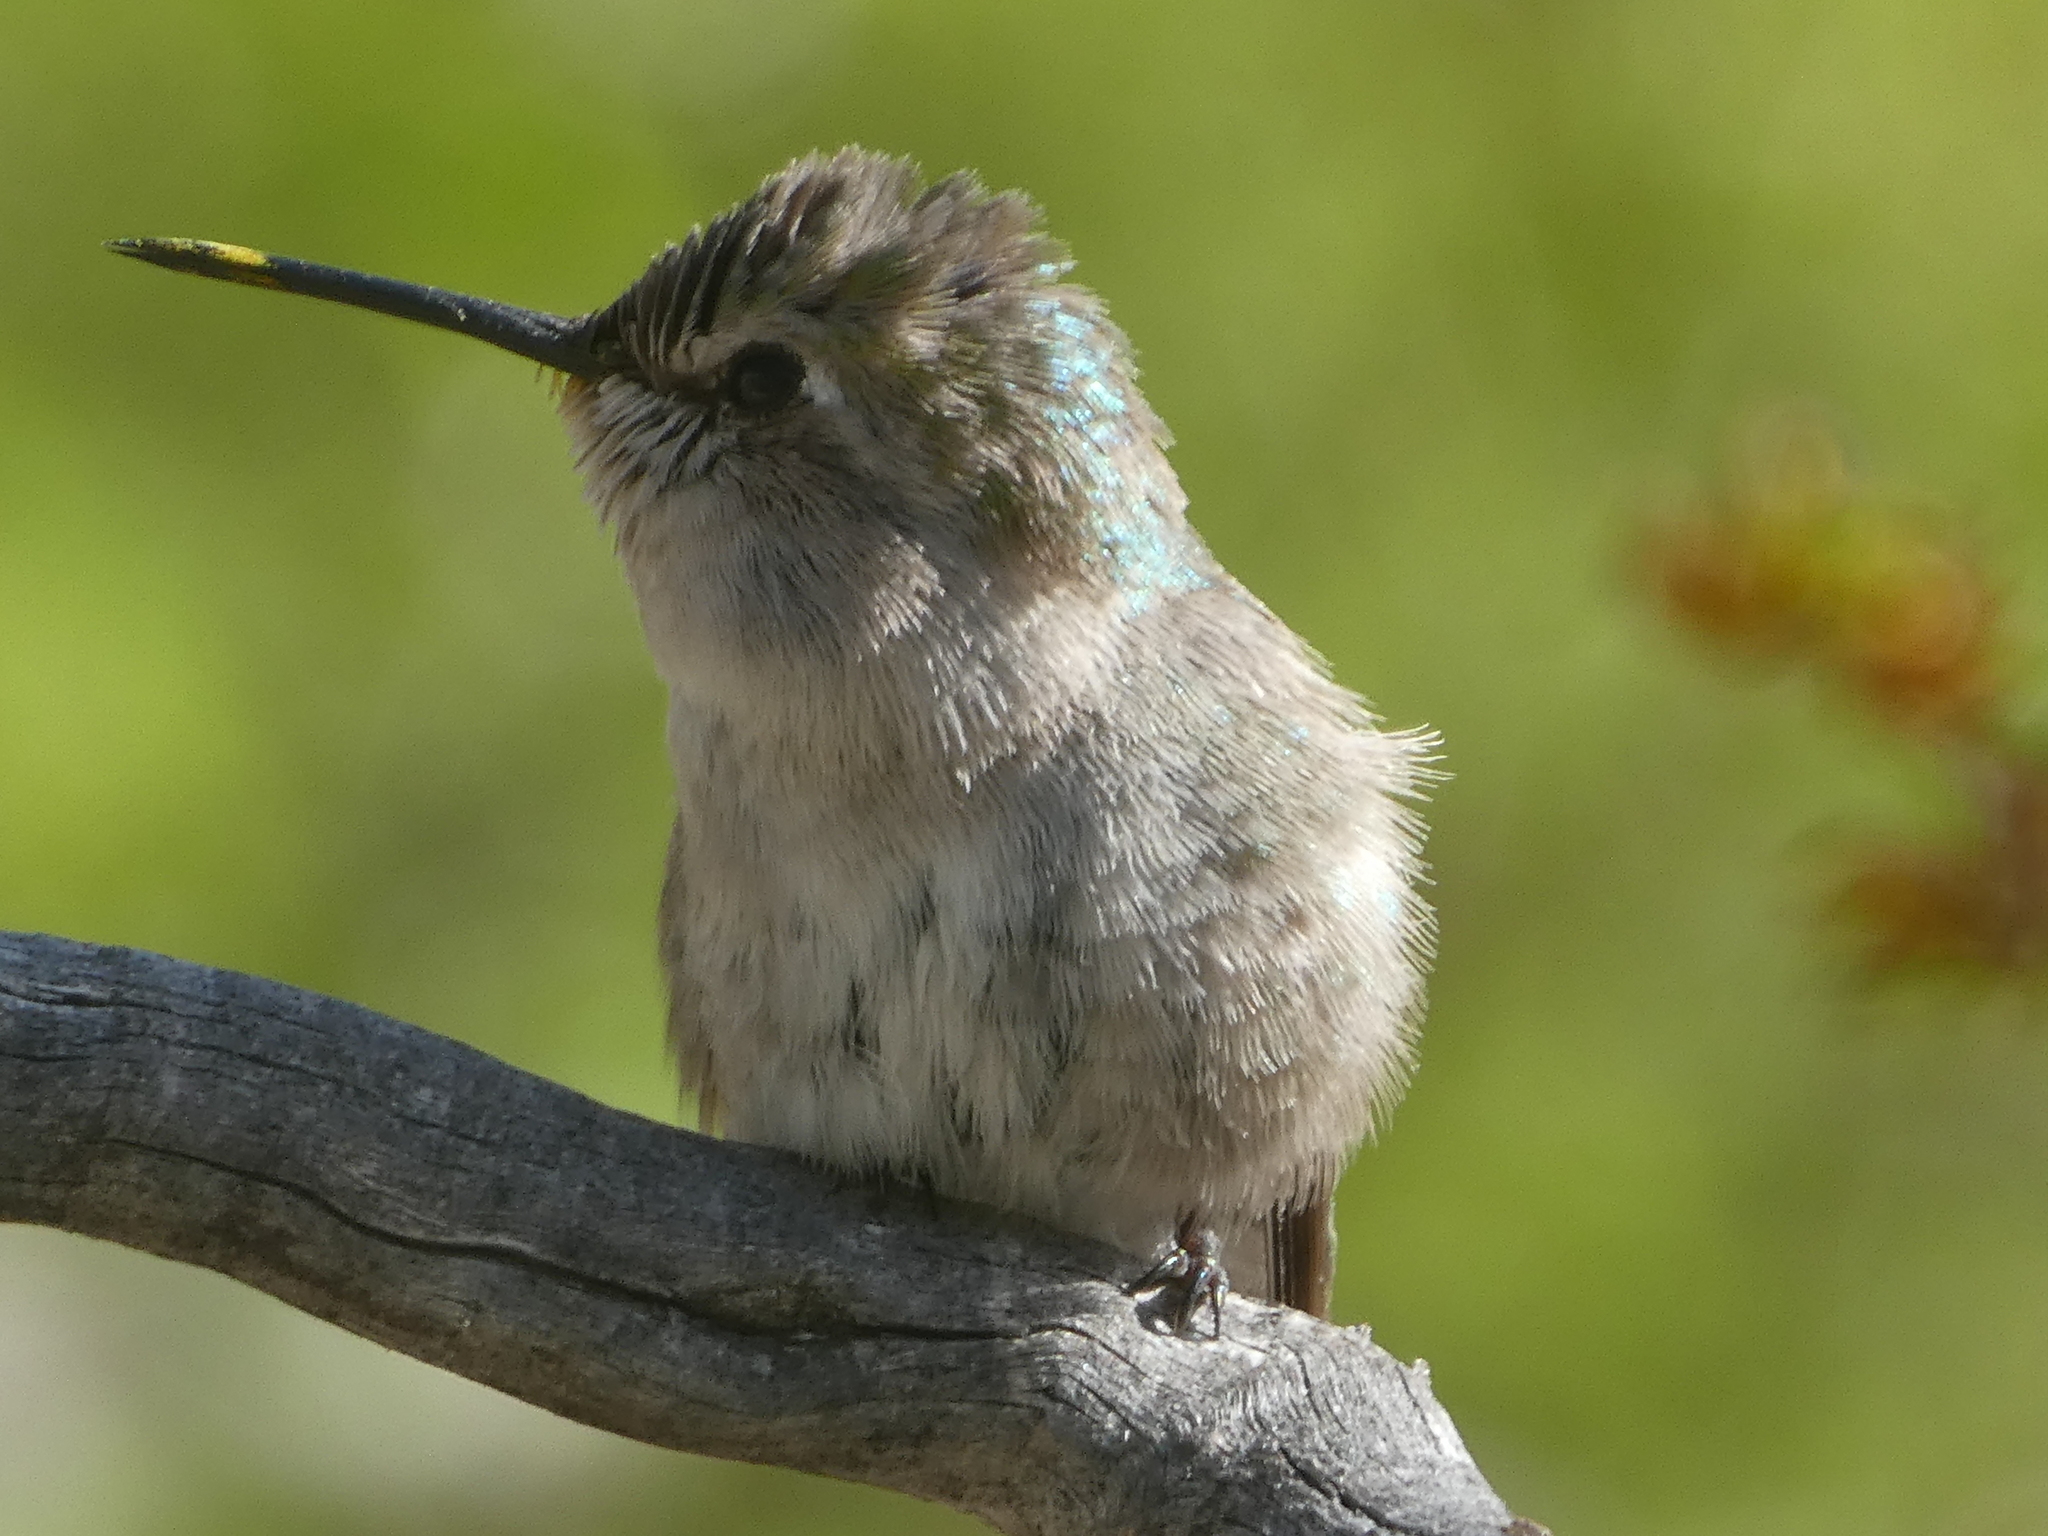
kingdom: Animalia
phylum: Chordata
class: Aves
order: Apodiformes
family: Trochilidae
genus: Calypte
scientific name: Calypte costae
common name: Costa's hummingbird
